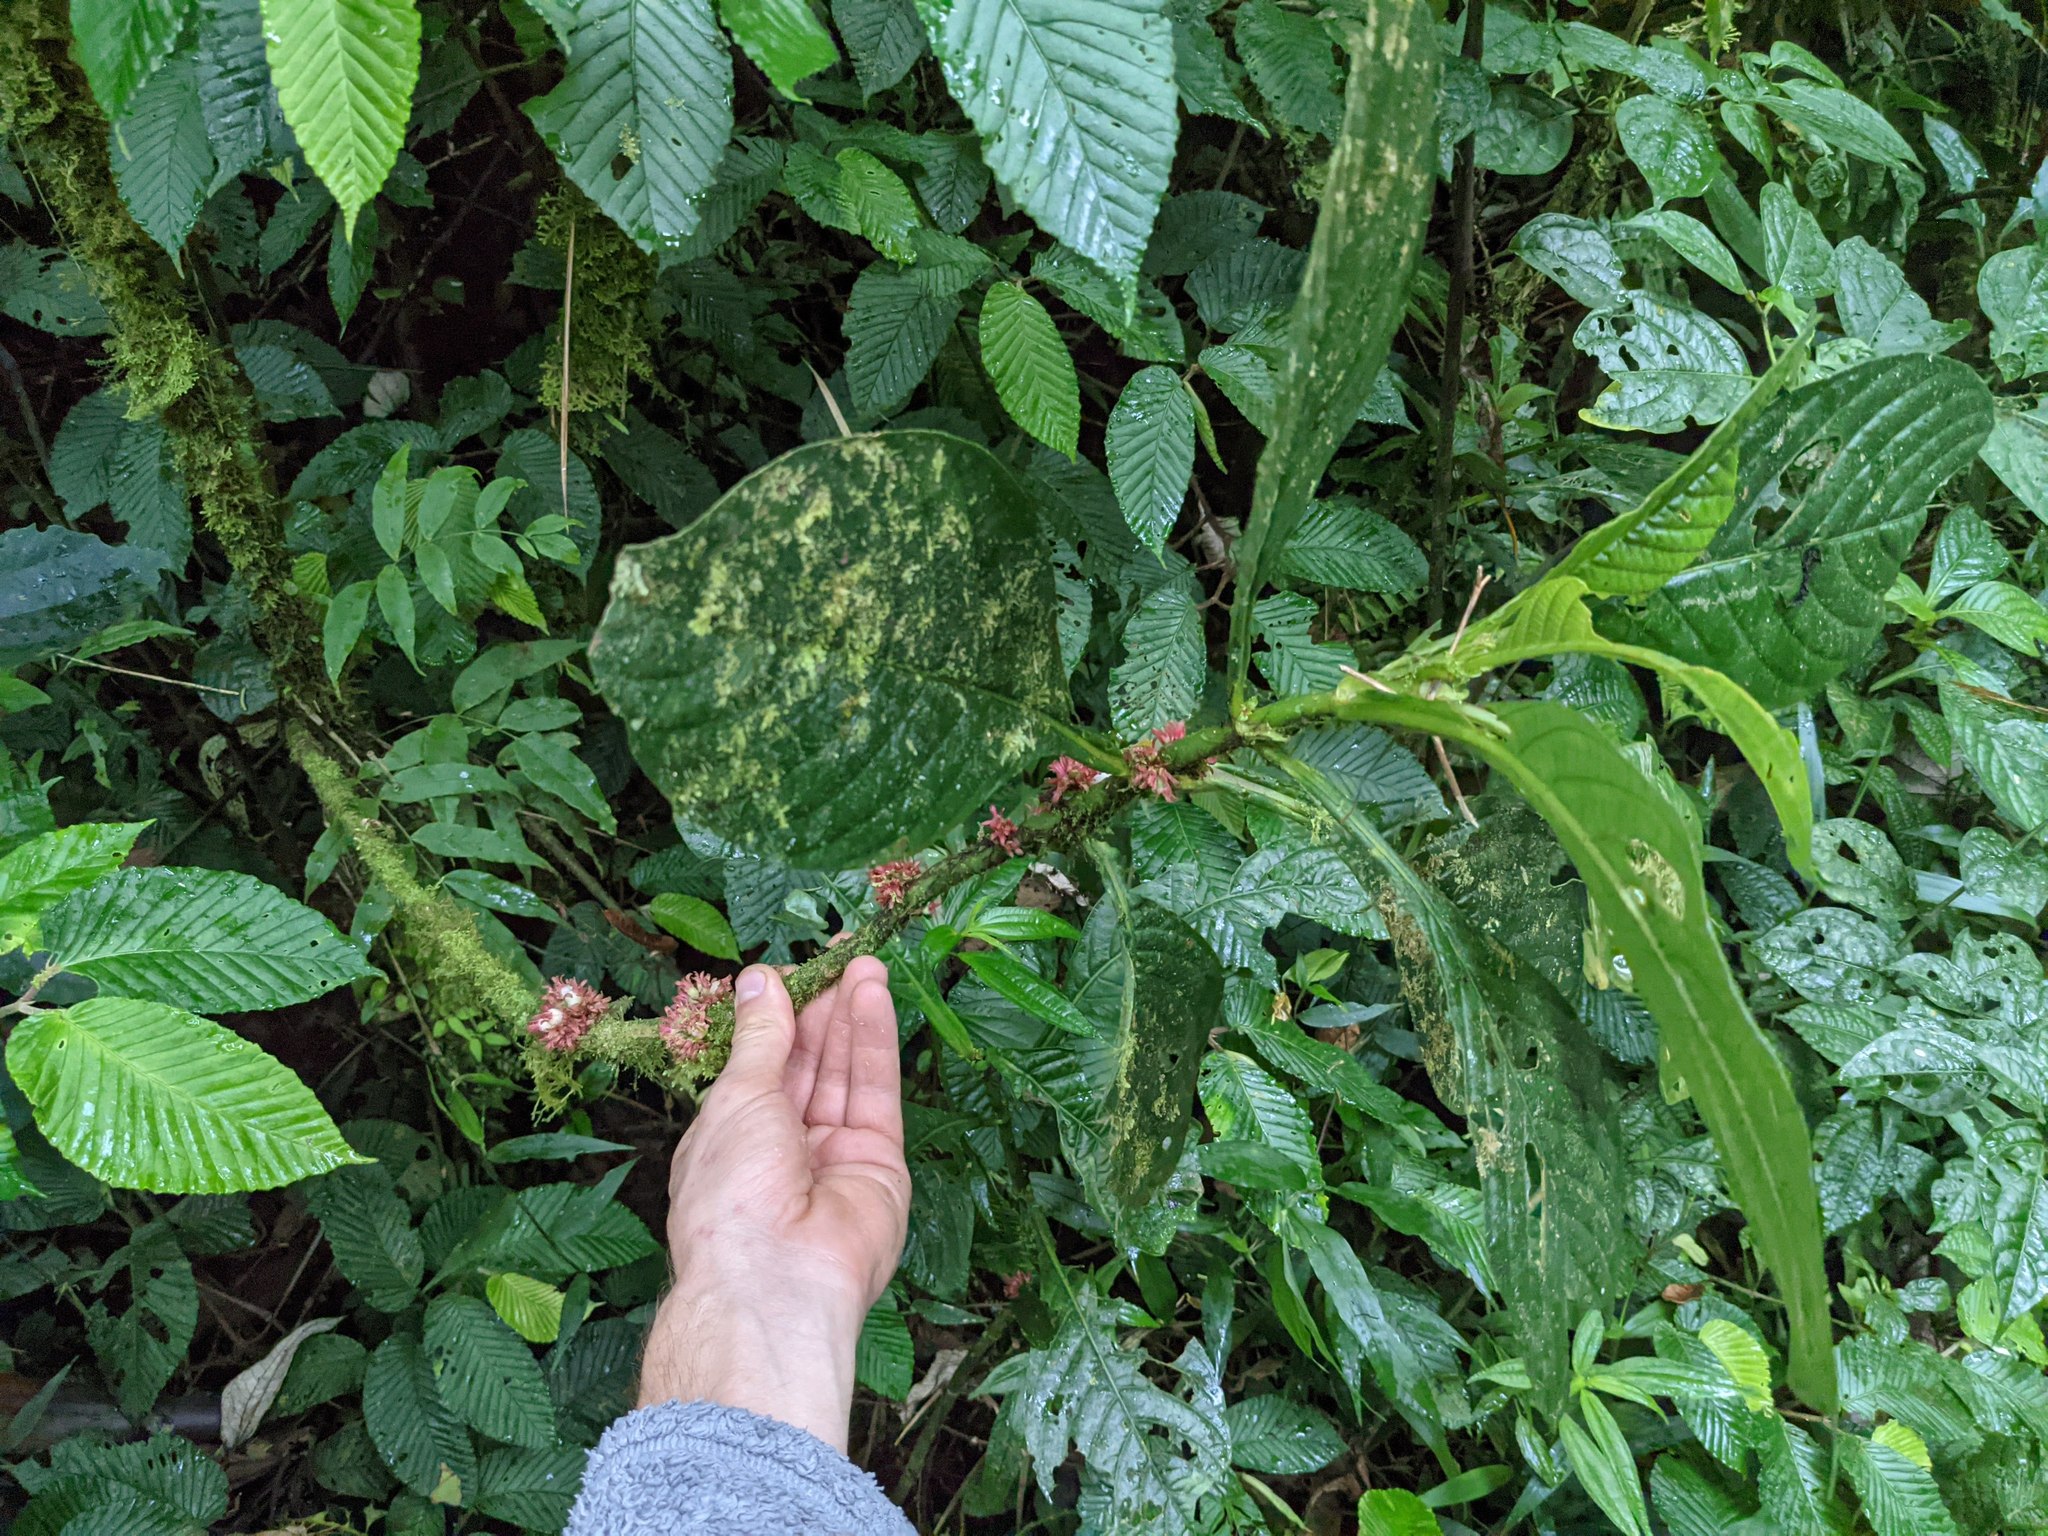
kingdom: Plantae
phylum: Tracheophyta
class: Magnoliopsida
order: Gentianales
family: Rubiaceae
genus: Hoffmannia
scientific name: Hoffmannia congesta
